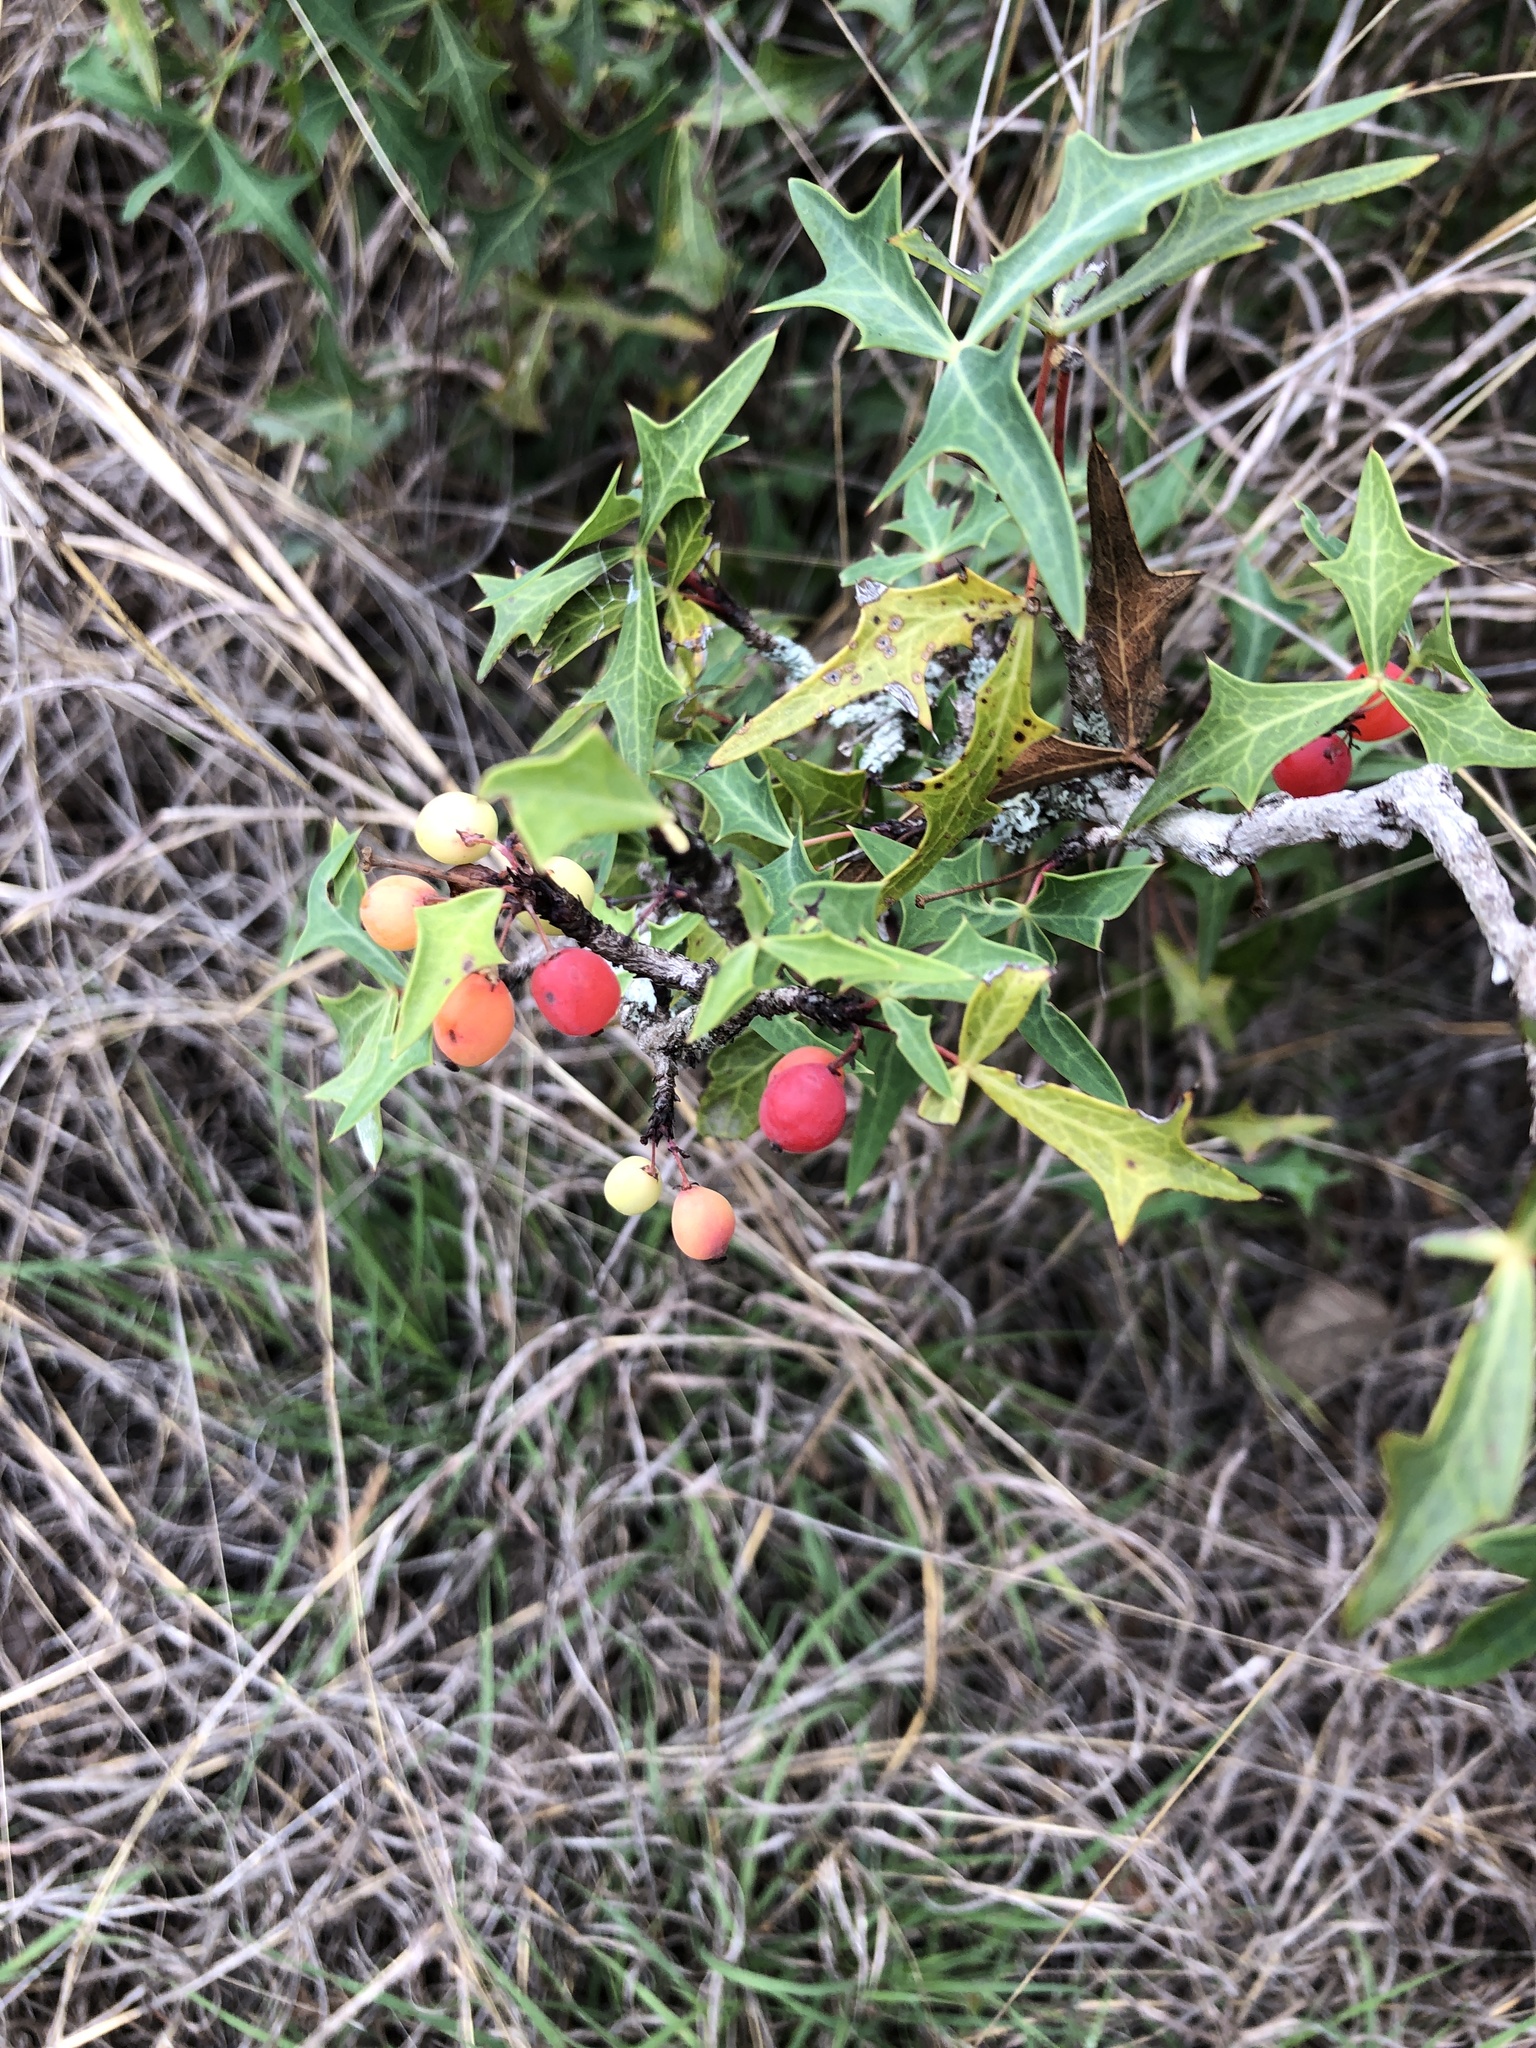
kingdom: Plantae
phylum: Tracheophyta
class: Magnoliopsida
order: Ranunculales
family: Berberidaceae
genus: Alloberberis
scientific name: Alloberberis trifoliolata
